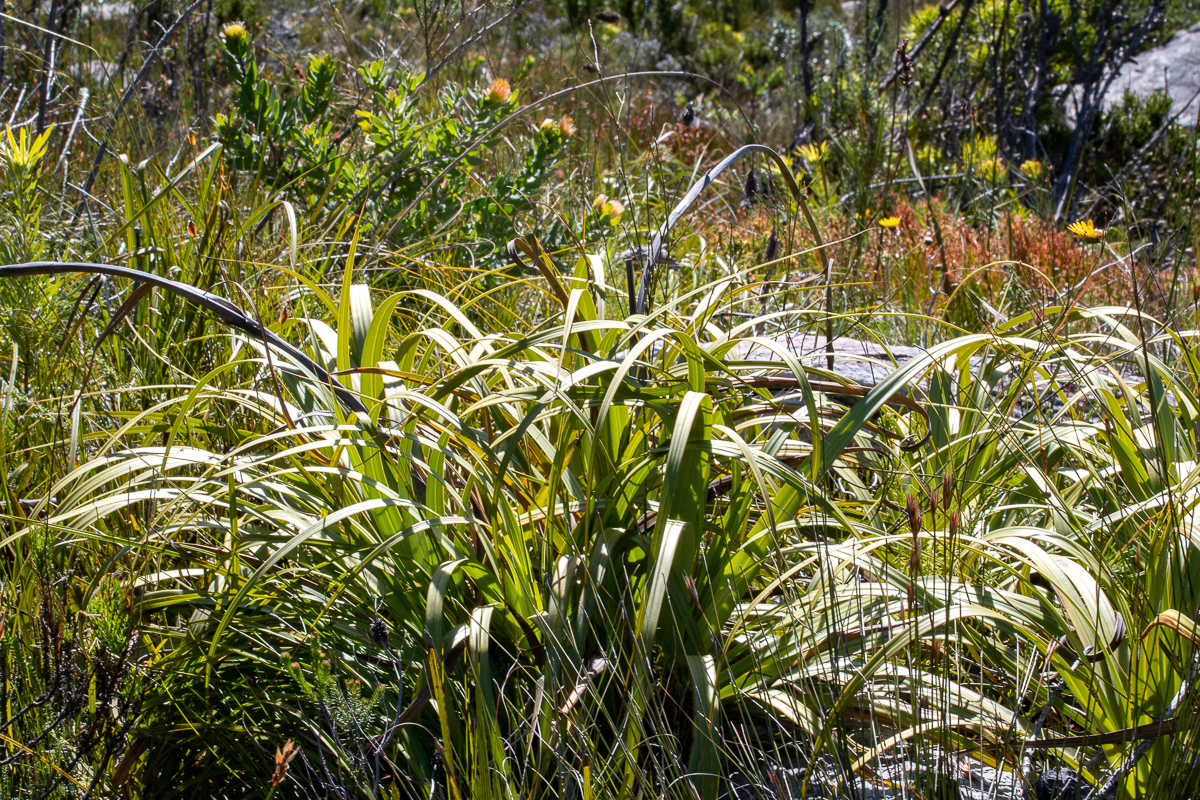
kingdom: Plantae
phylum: Tracheophyta
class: Liliopsida
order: Poales
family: Cyperaceae
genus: Tetraria
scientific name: Tetraria thermalis
